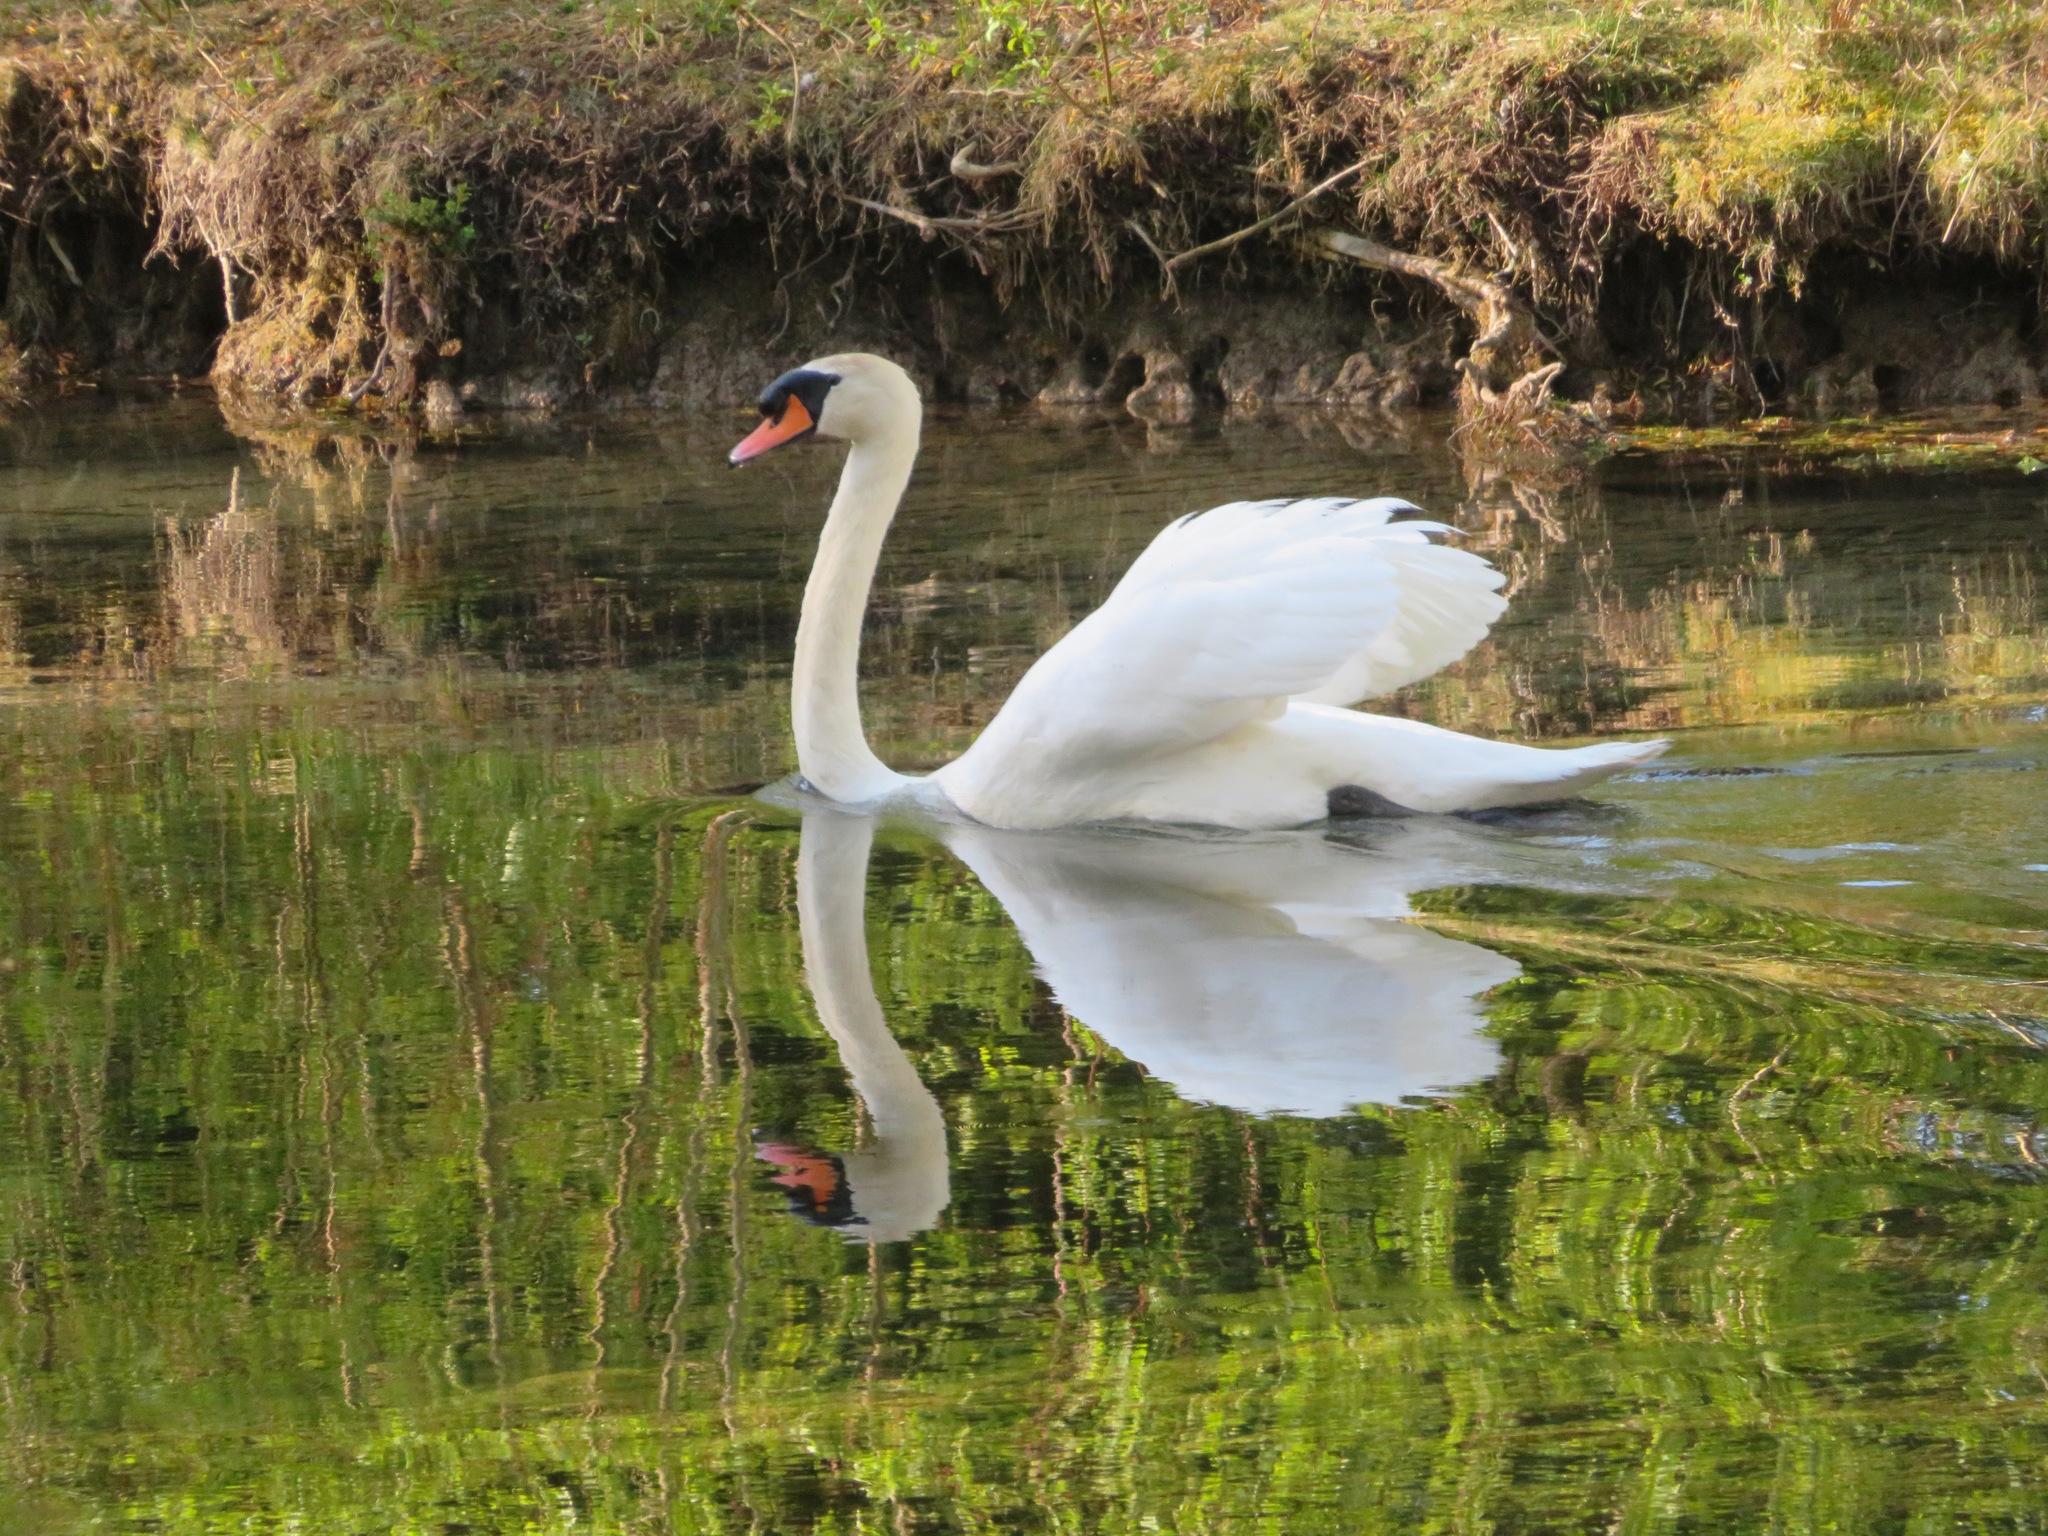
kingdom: Animalia
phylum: Chordata
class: Aves
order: Anseriformes
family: Anatidae
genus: Cygnus
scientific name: Cygnus olor
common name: Mute swan
